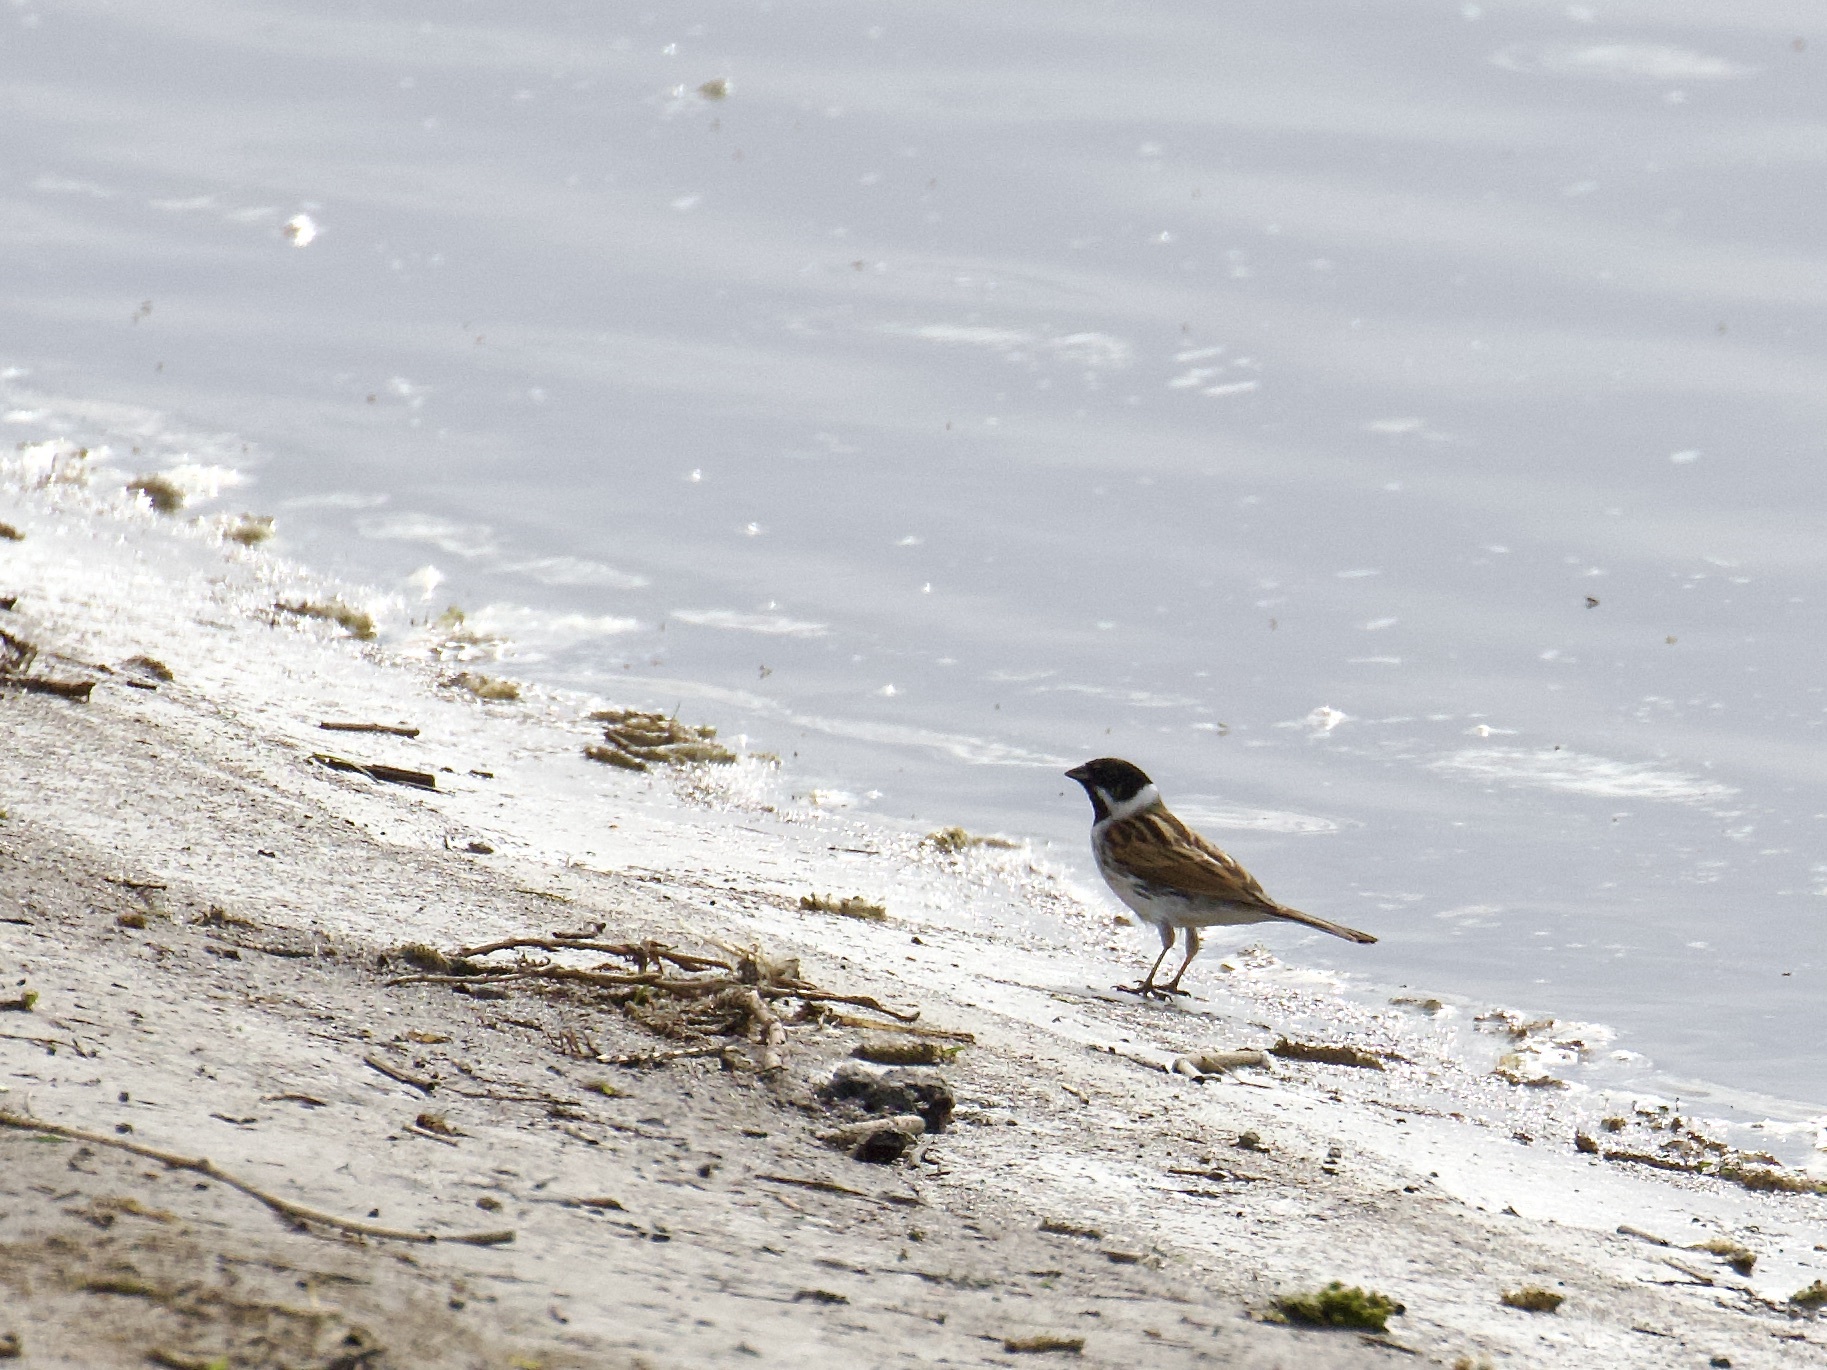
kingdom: Animalia
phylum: Chordata
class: Aves
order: Passeriformes
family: Emberizidae
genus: Emberiza
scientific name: Emberiza schoeniclus
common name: Reed bunting
